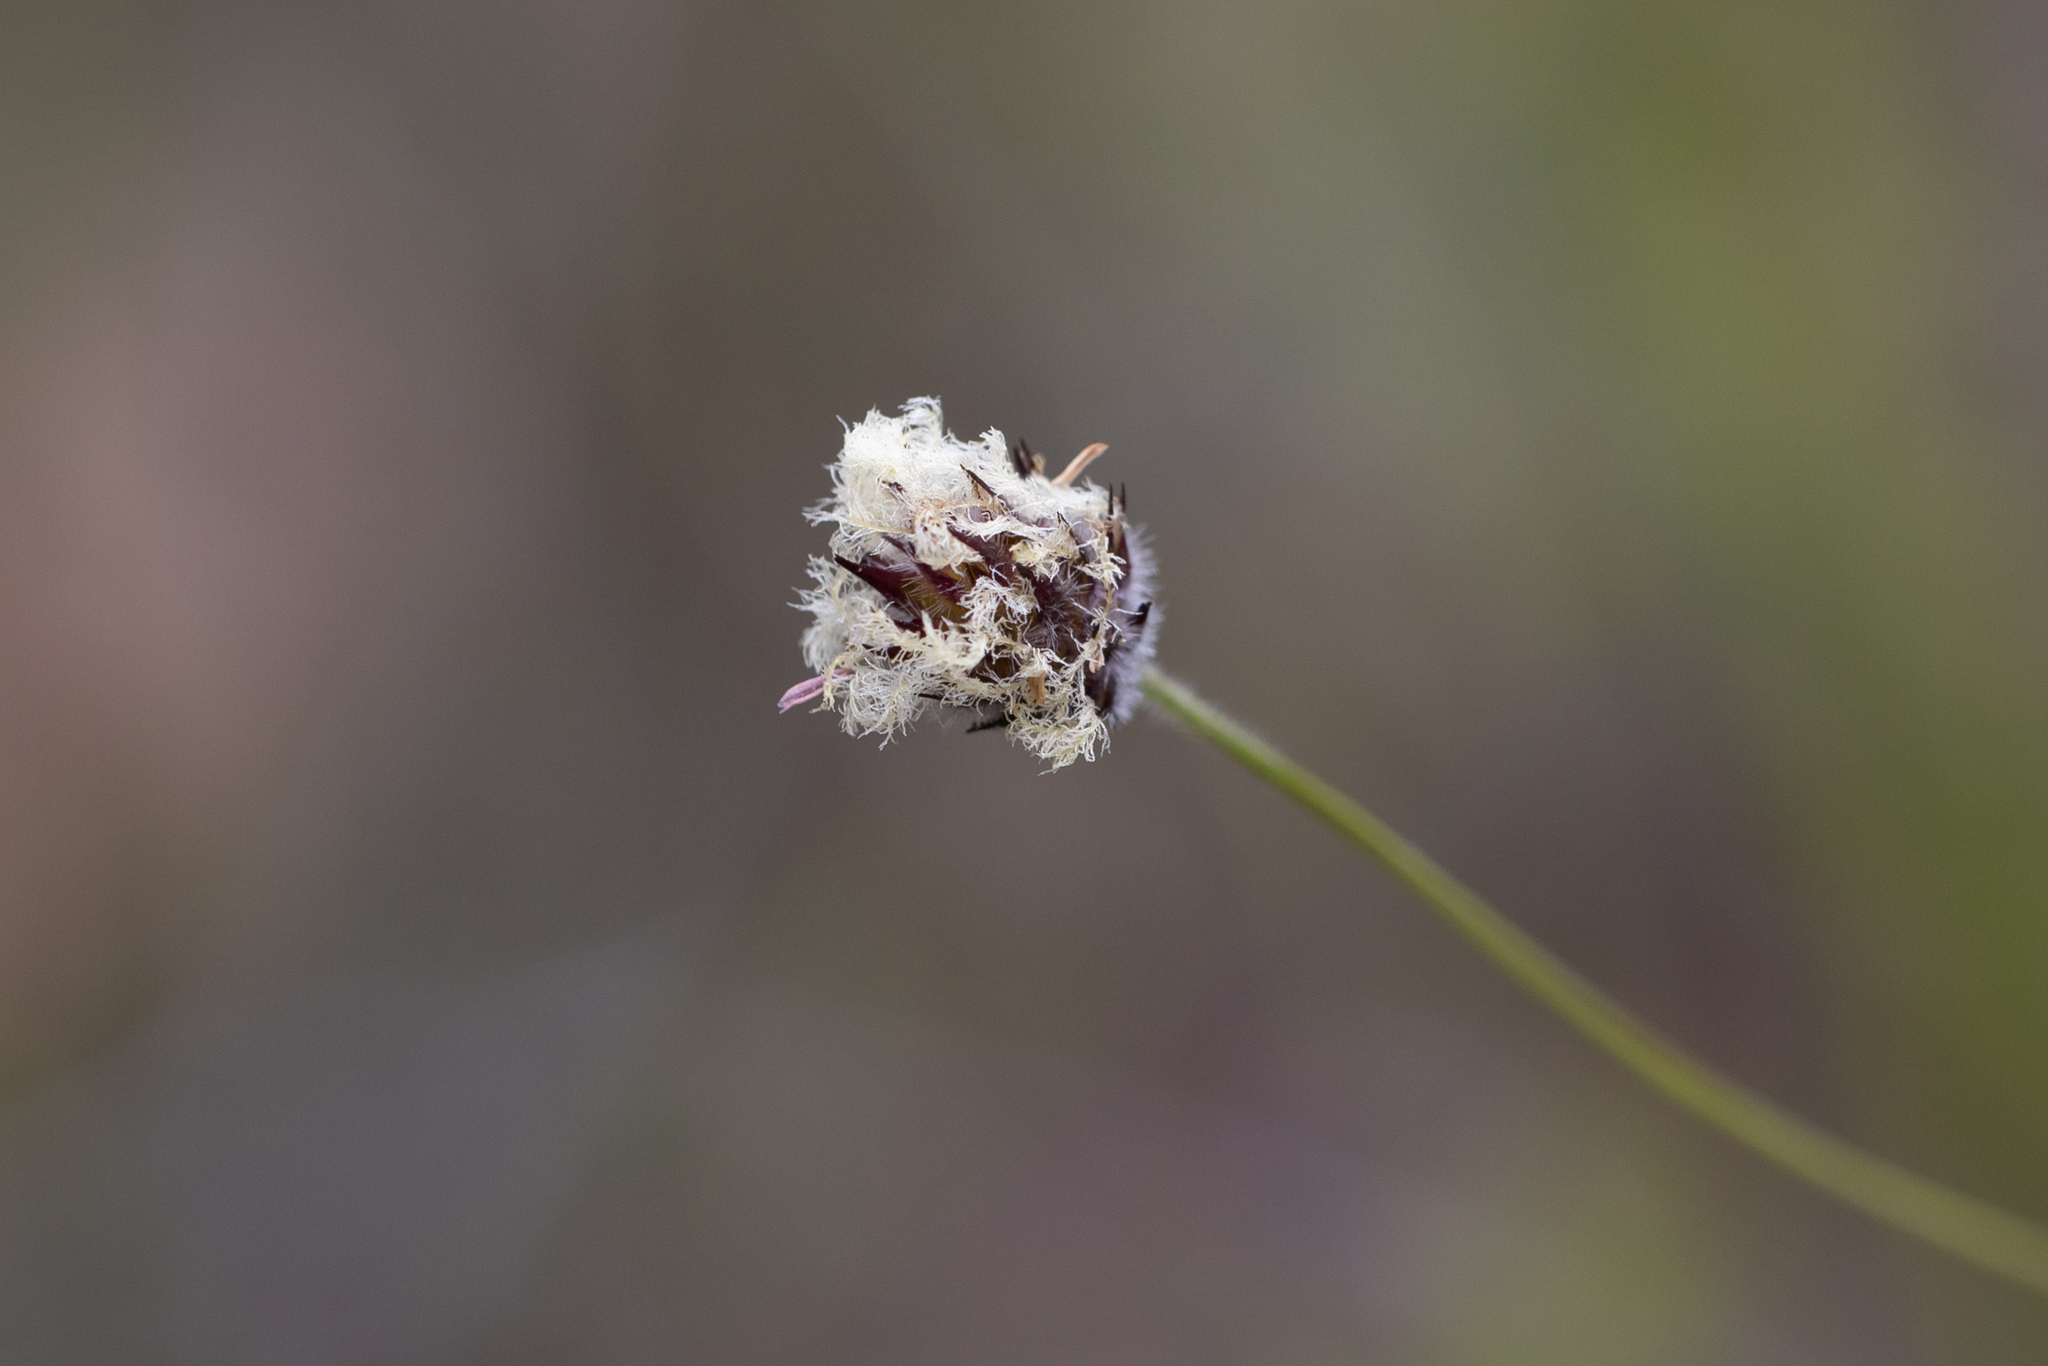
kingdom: Plantae
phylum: Tracheophyta
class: Liliopsida
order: Poales
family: Poaceae
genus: Amphipogon
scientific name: Amphipogon amphipogonoides
